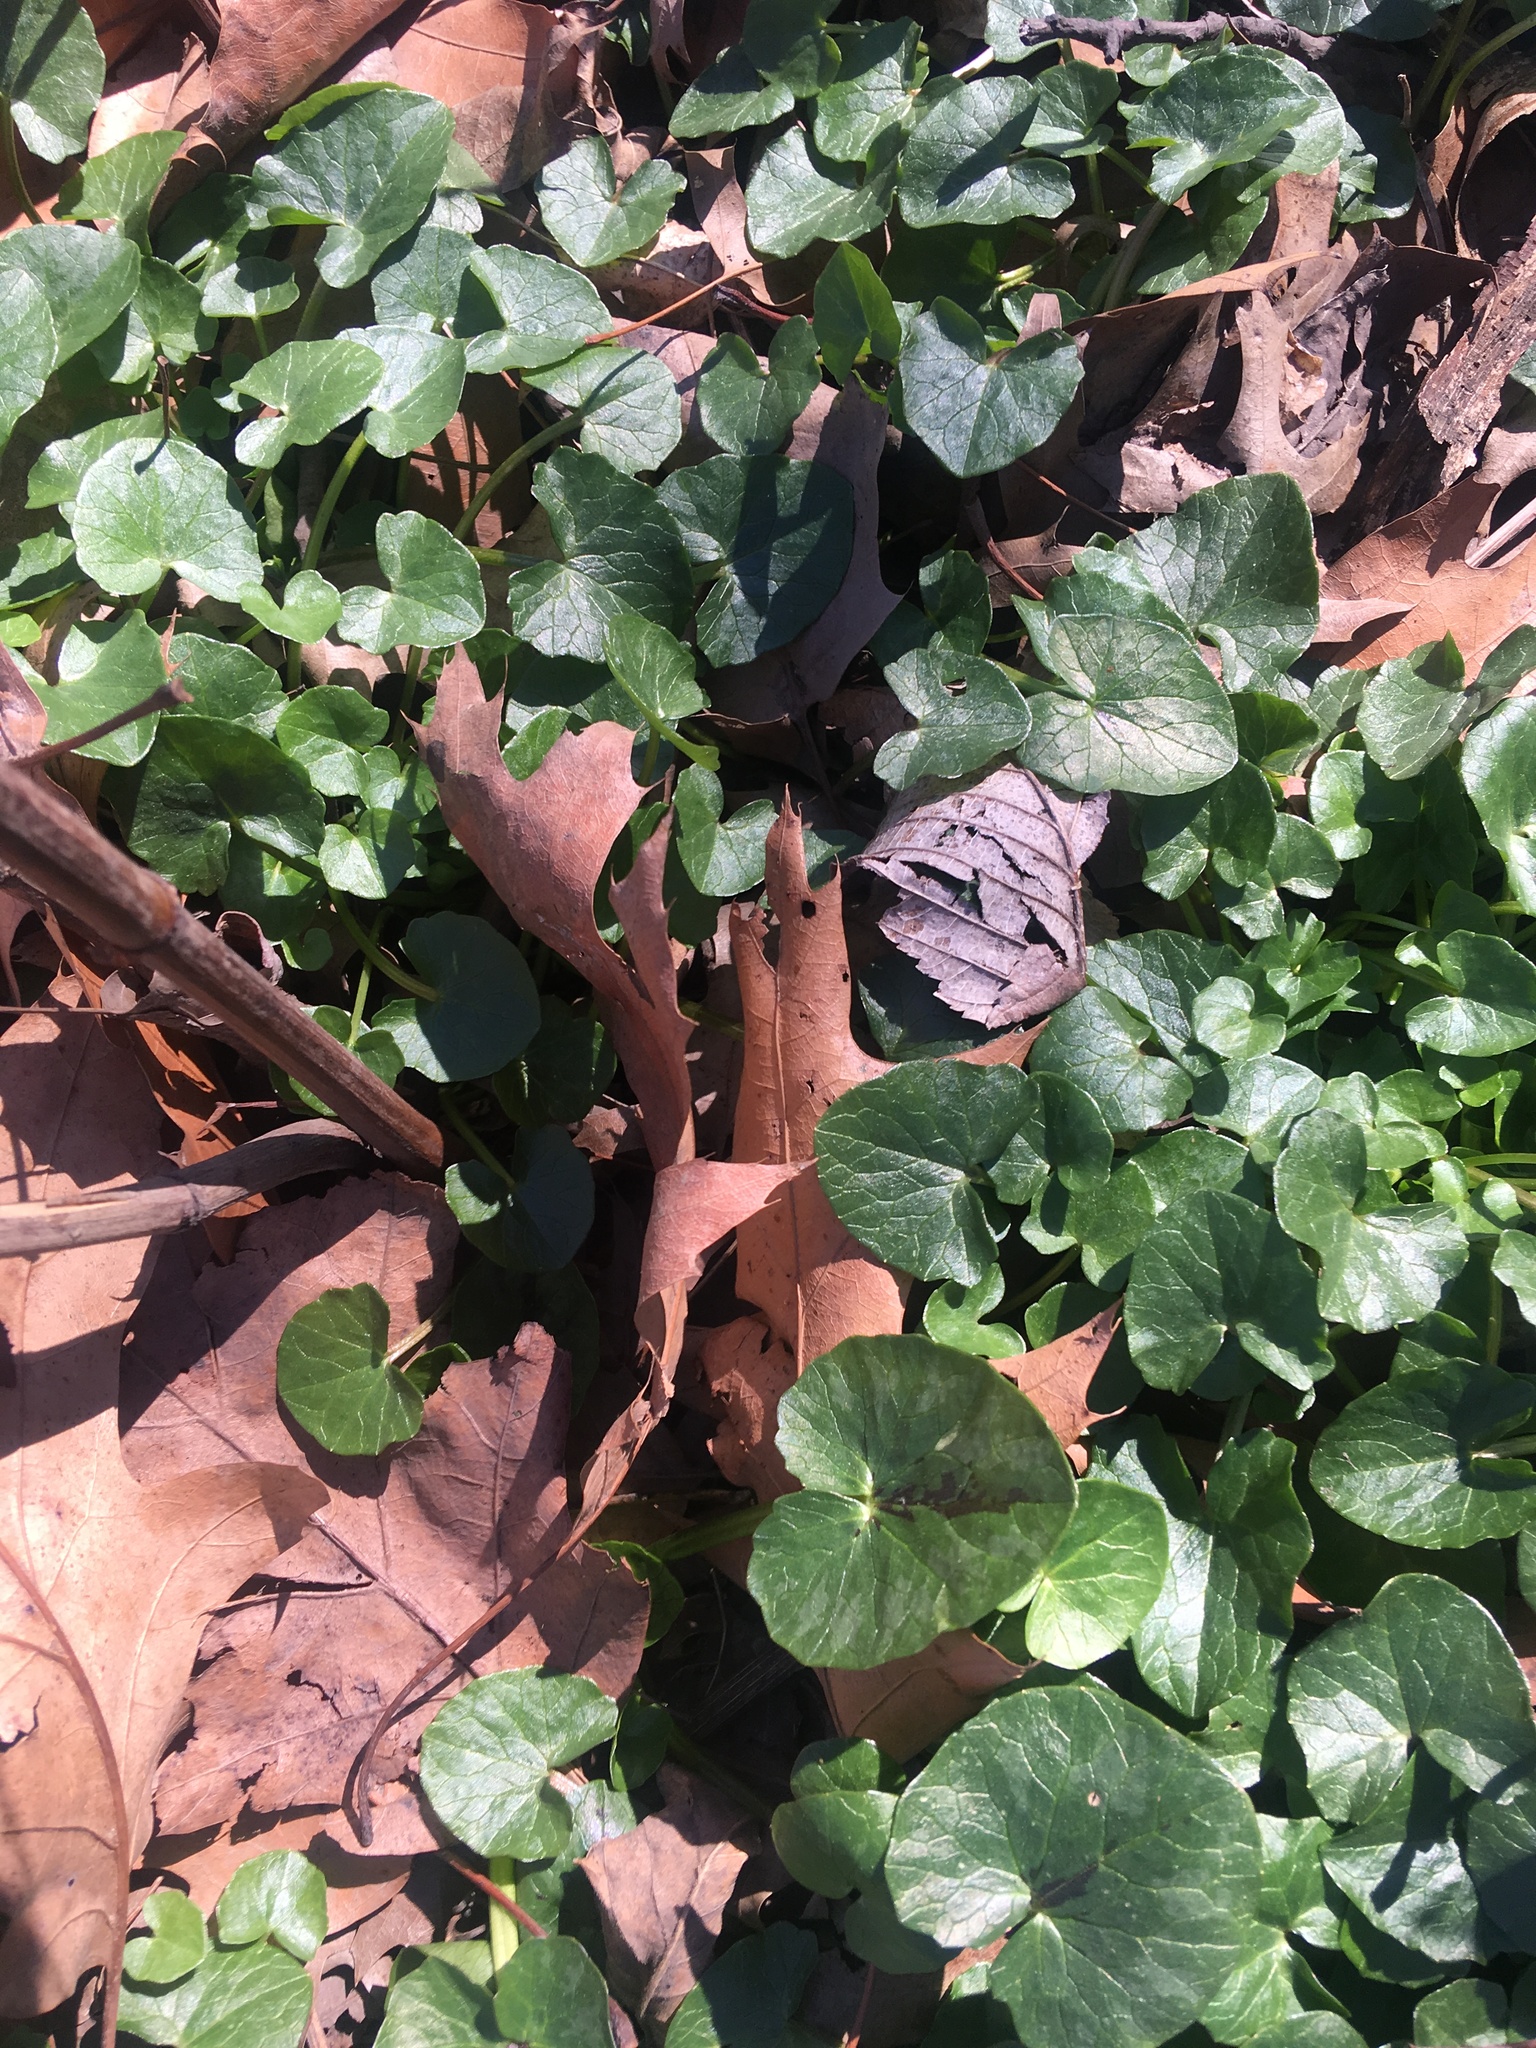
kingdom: Plantae
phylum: Tracheophyta
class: Magnoliopsida
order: Ranunculales
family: Ranunculaceae
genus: Ficaria
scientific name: Ficaria verna
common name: Lesser celandine
